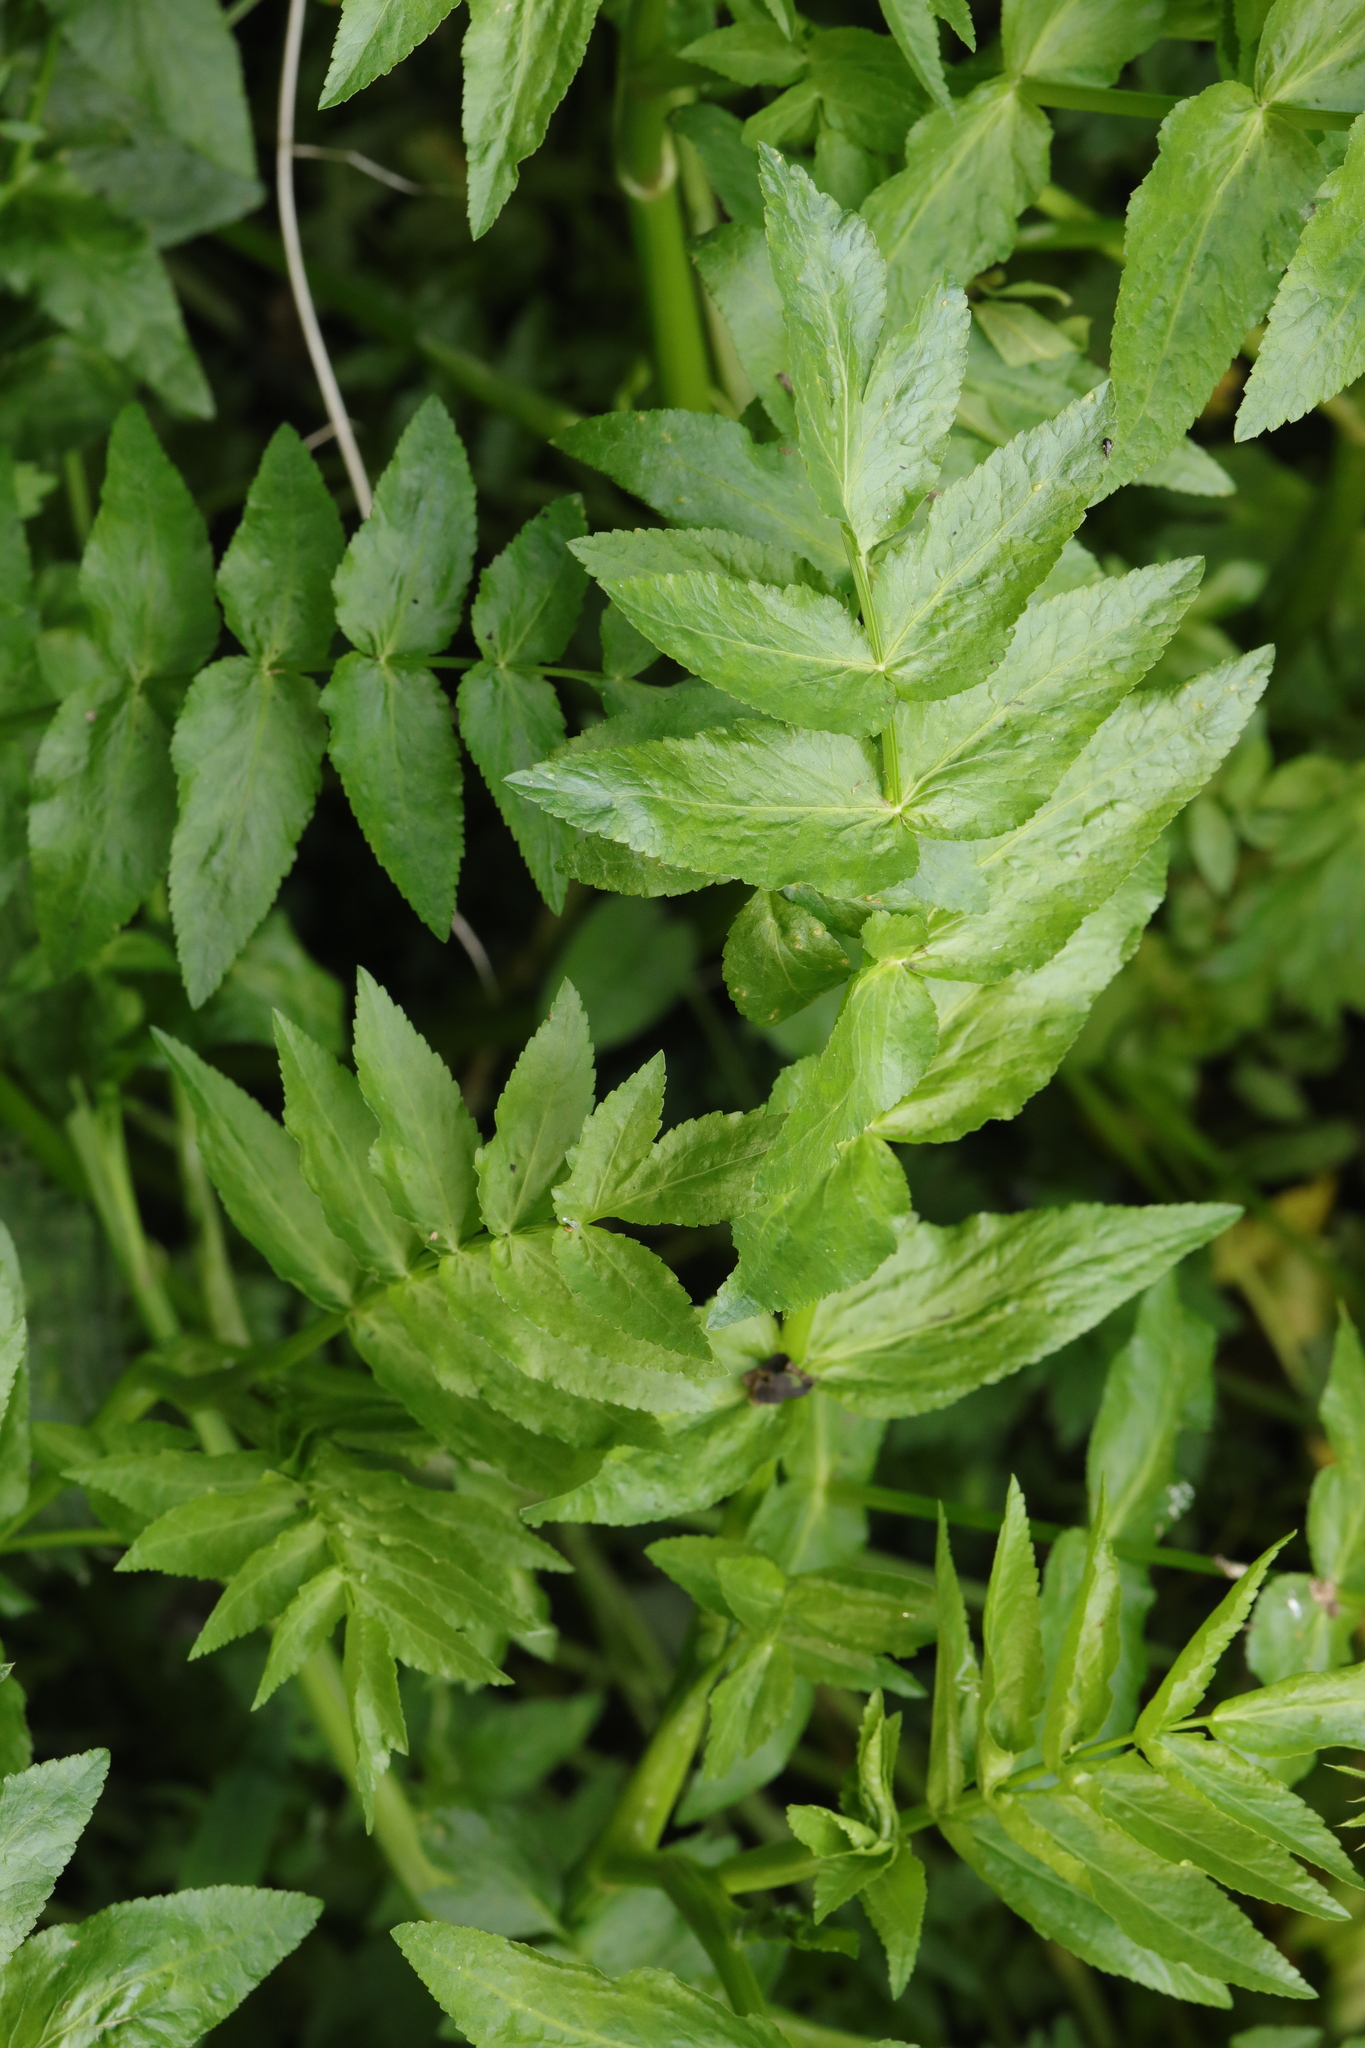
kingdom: Plantae
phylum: Tracheophyta
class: Magnoliopsida
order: Apiales
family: Apiaceae
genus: Helosciadium
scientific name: Helosciadium nodiflorum
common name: Fool's-watercress
